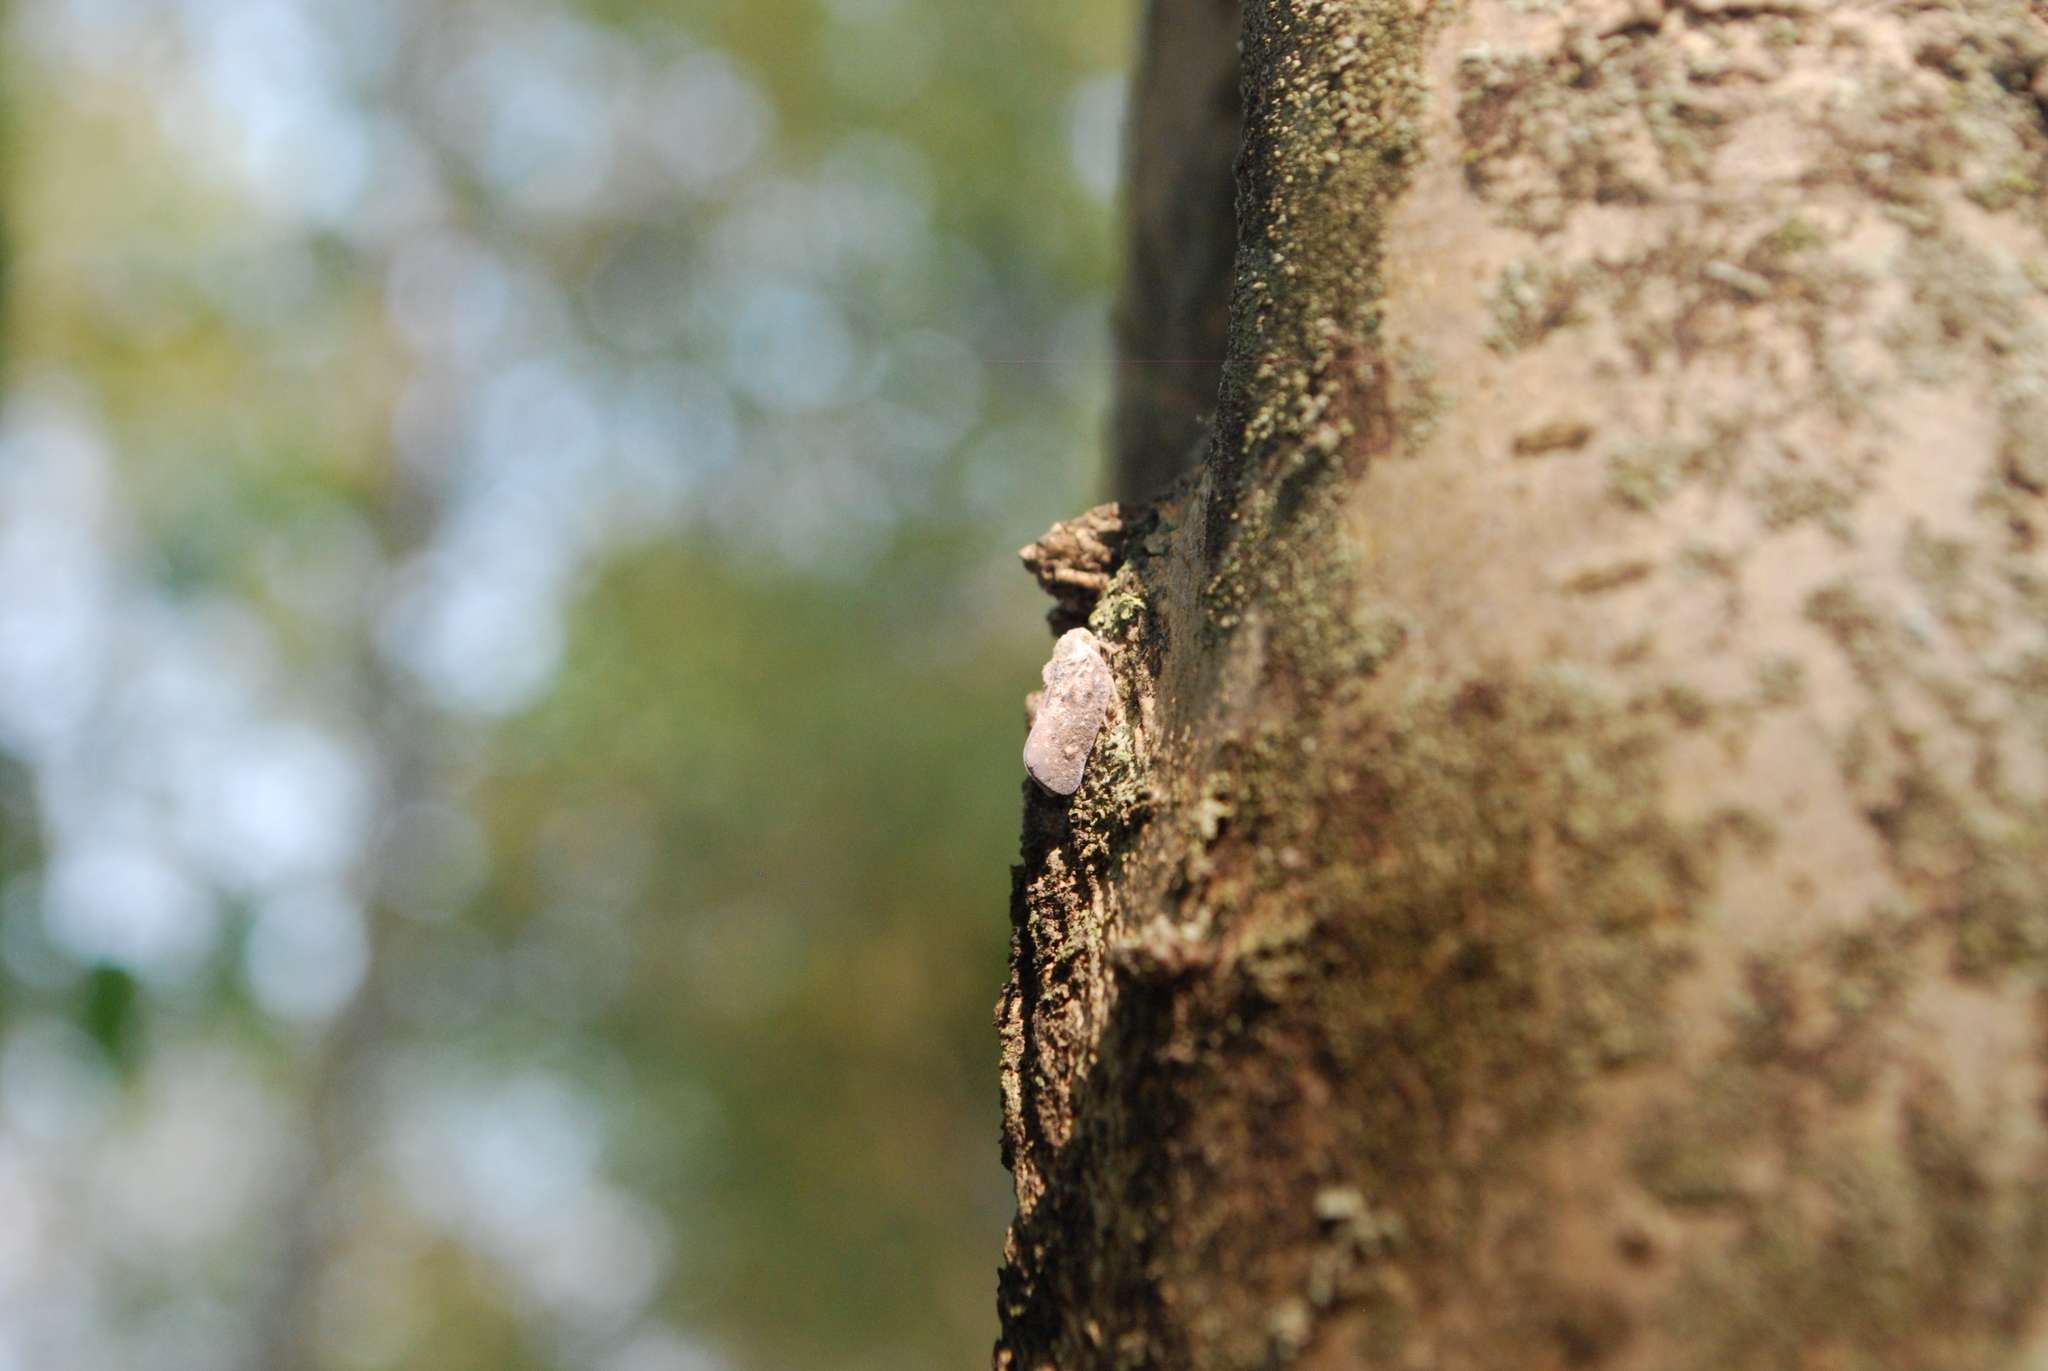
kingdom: Animalia
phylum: Arthropoda
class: Insecta
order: Hemiptera
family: Flatidae
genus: Metcalfa
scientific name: Metcalfa pruinosa
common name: Citrus flatid planthopper
